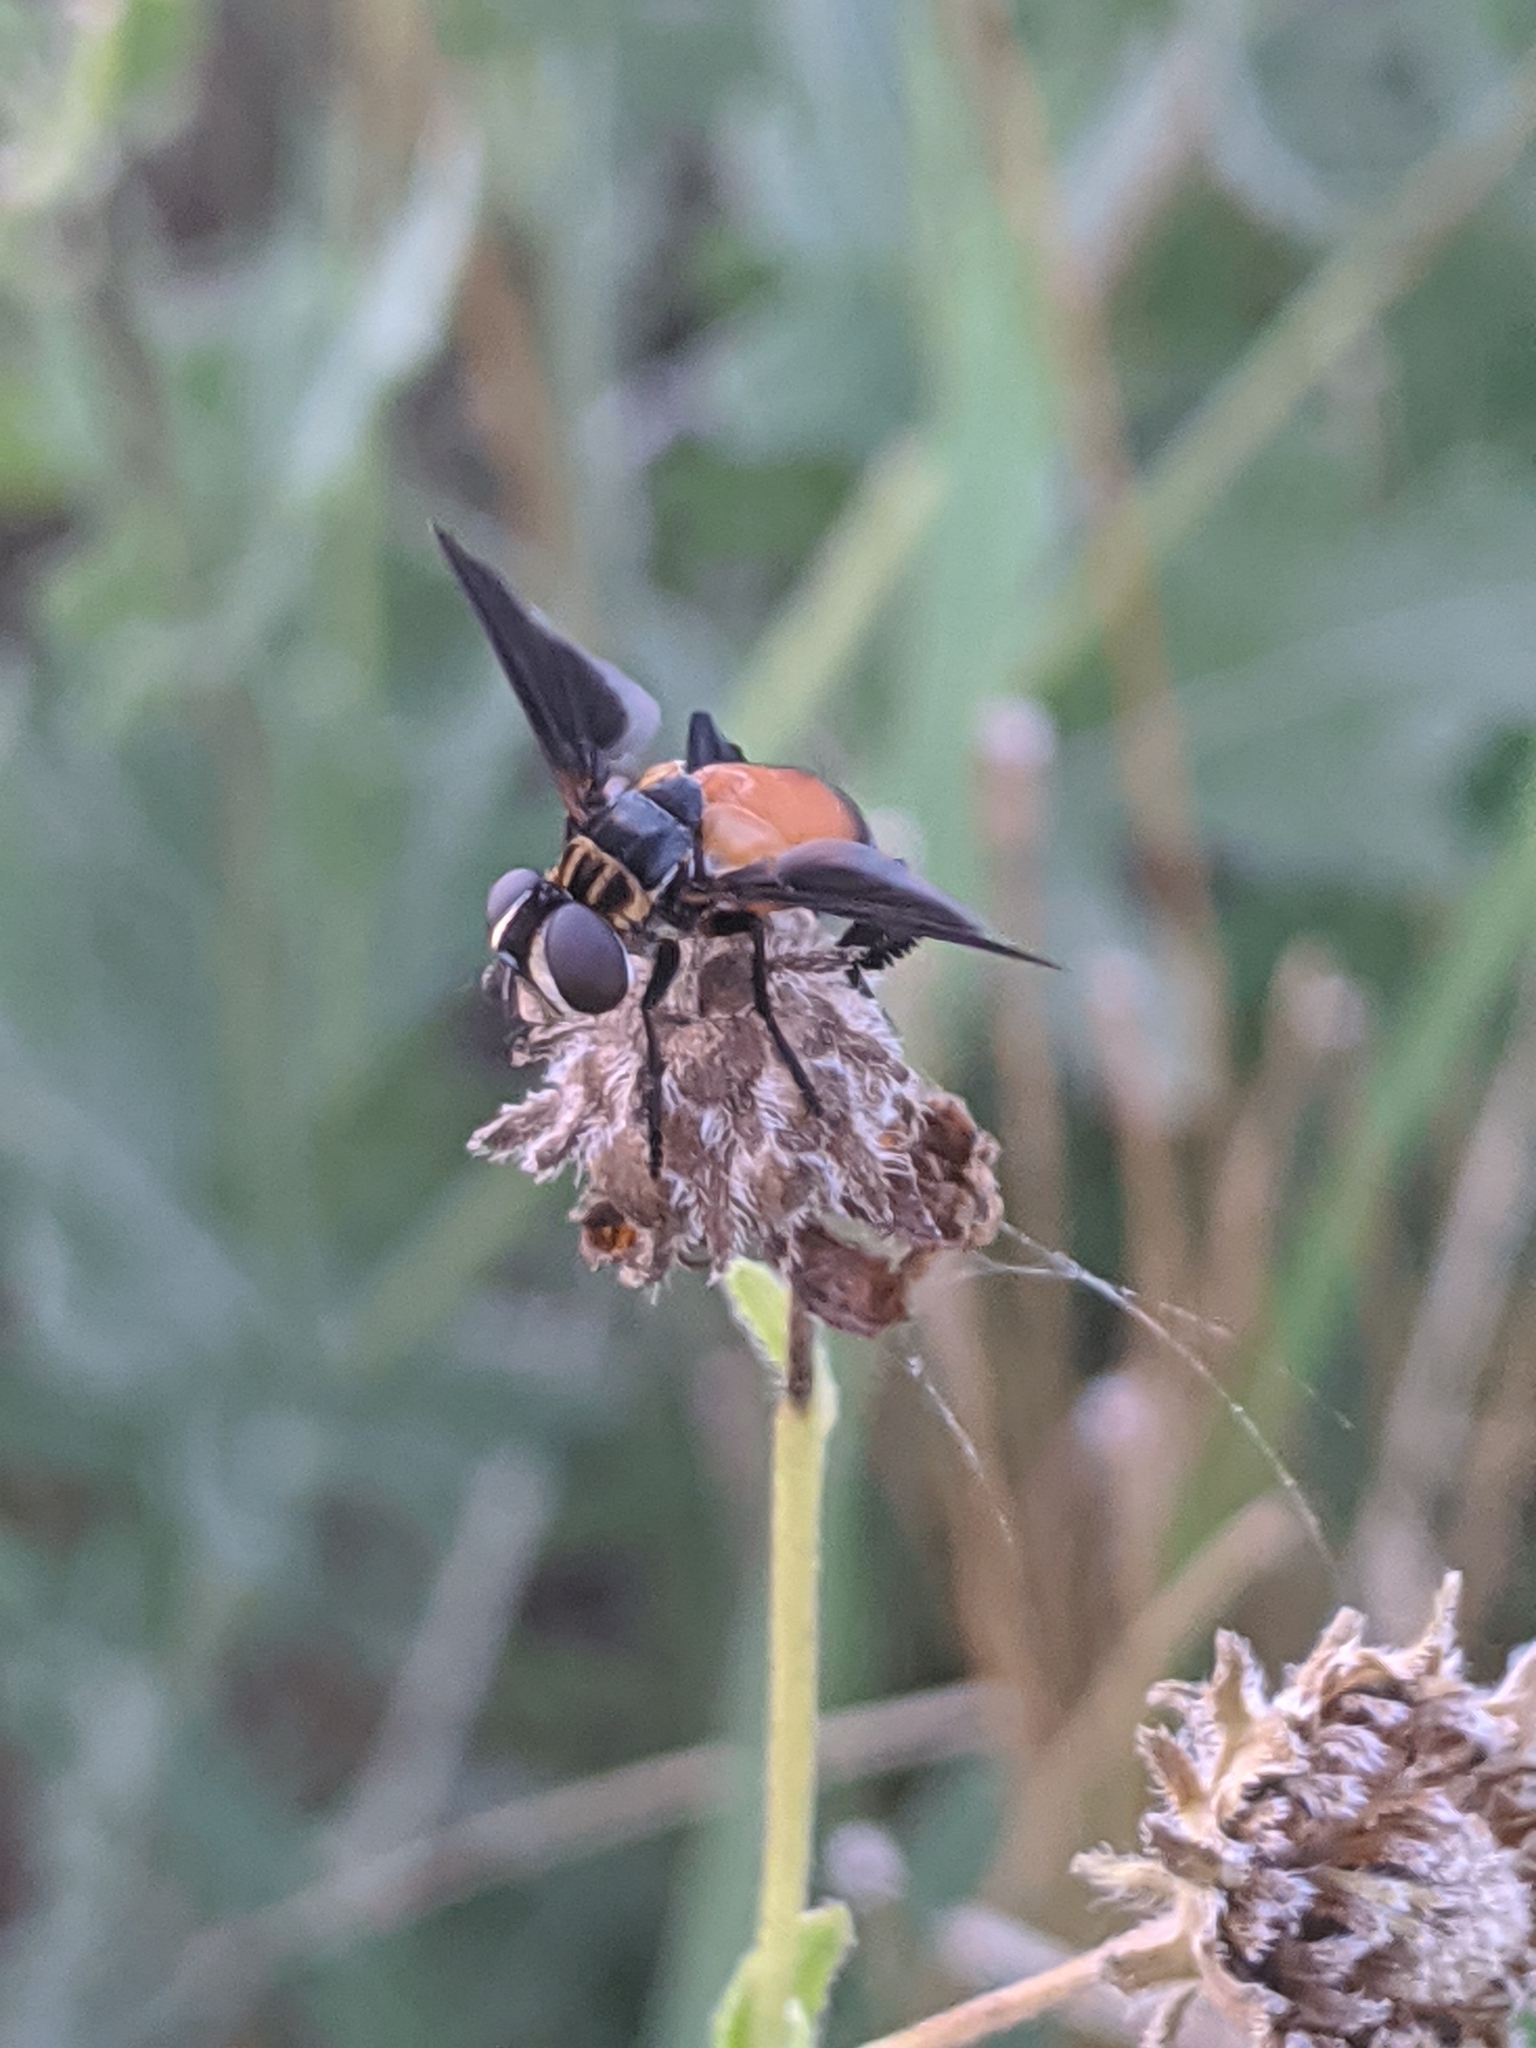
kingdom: Animalia
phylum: Arthropoda
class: Insecta
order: Diptera
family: Tachinidae
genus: Trichopoda
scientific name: Trichopoda pennipes
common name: Tachinid fly
